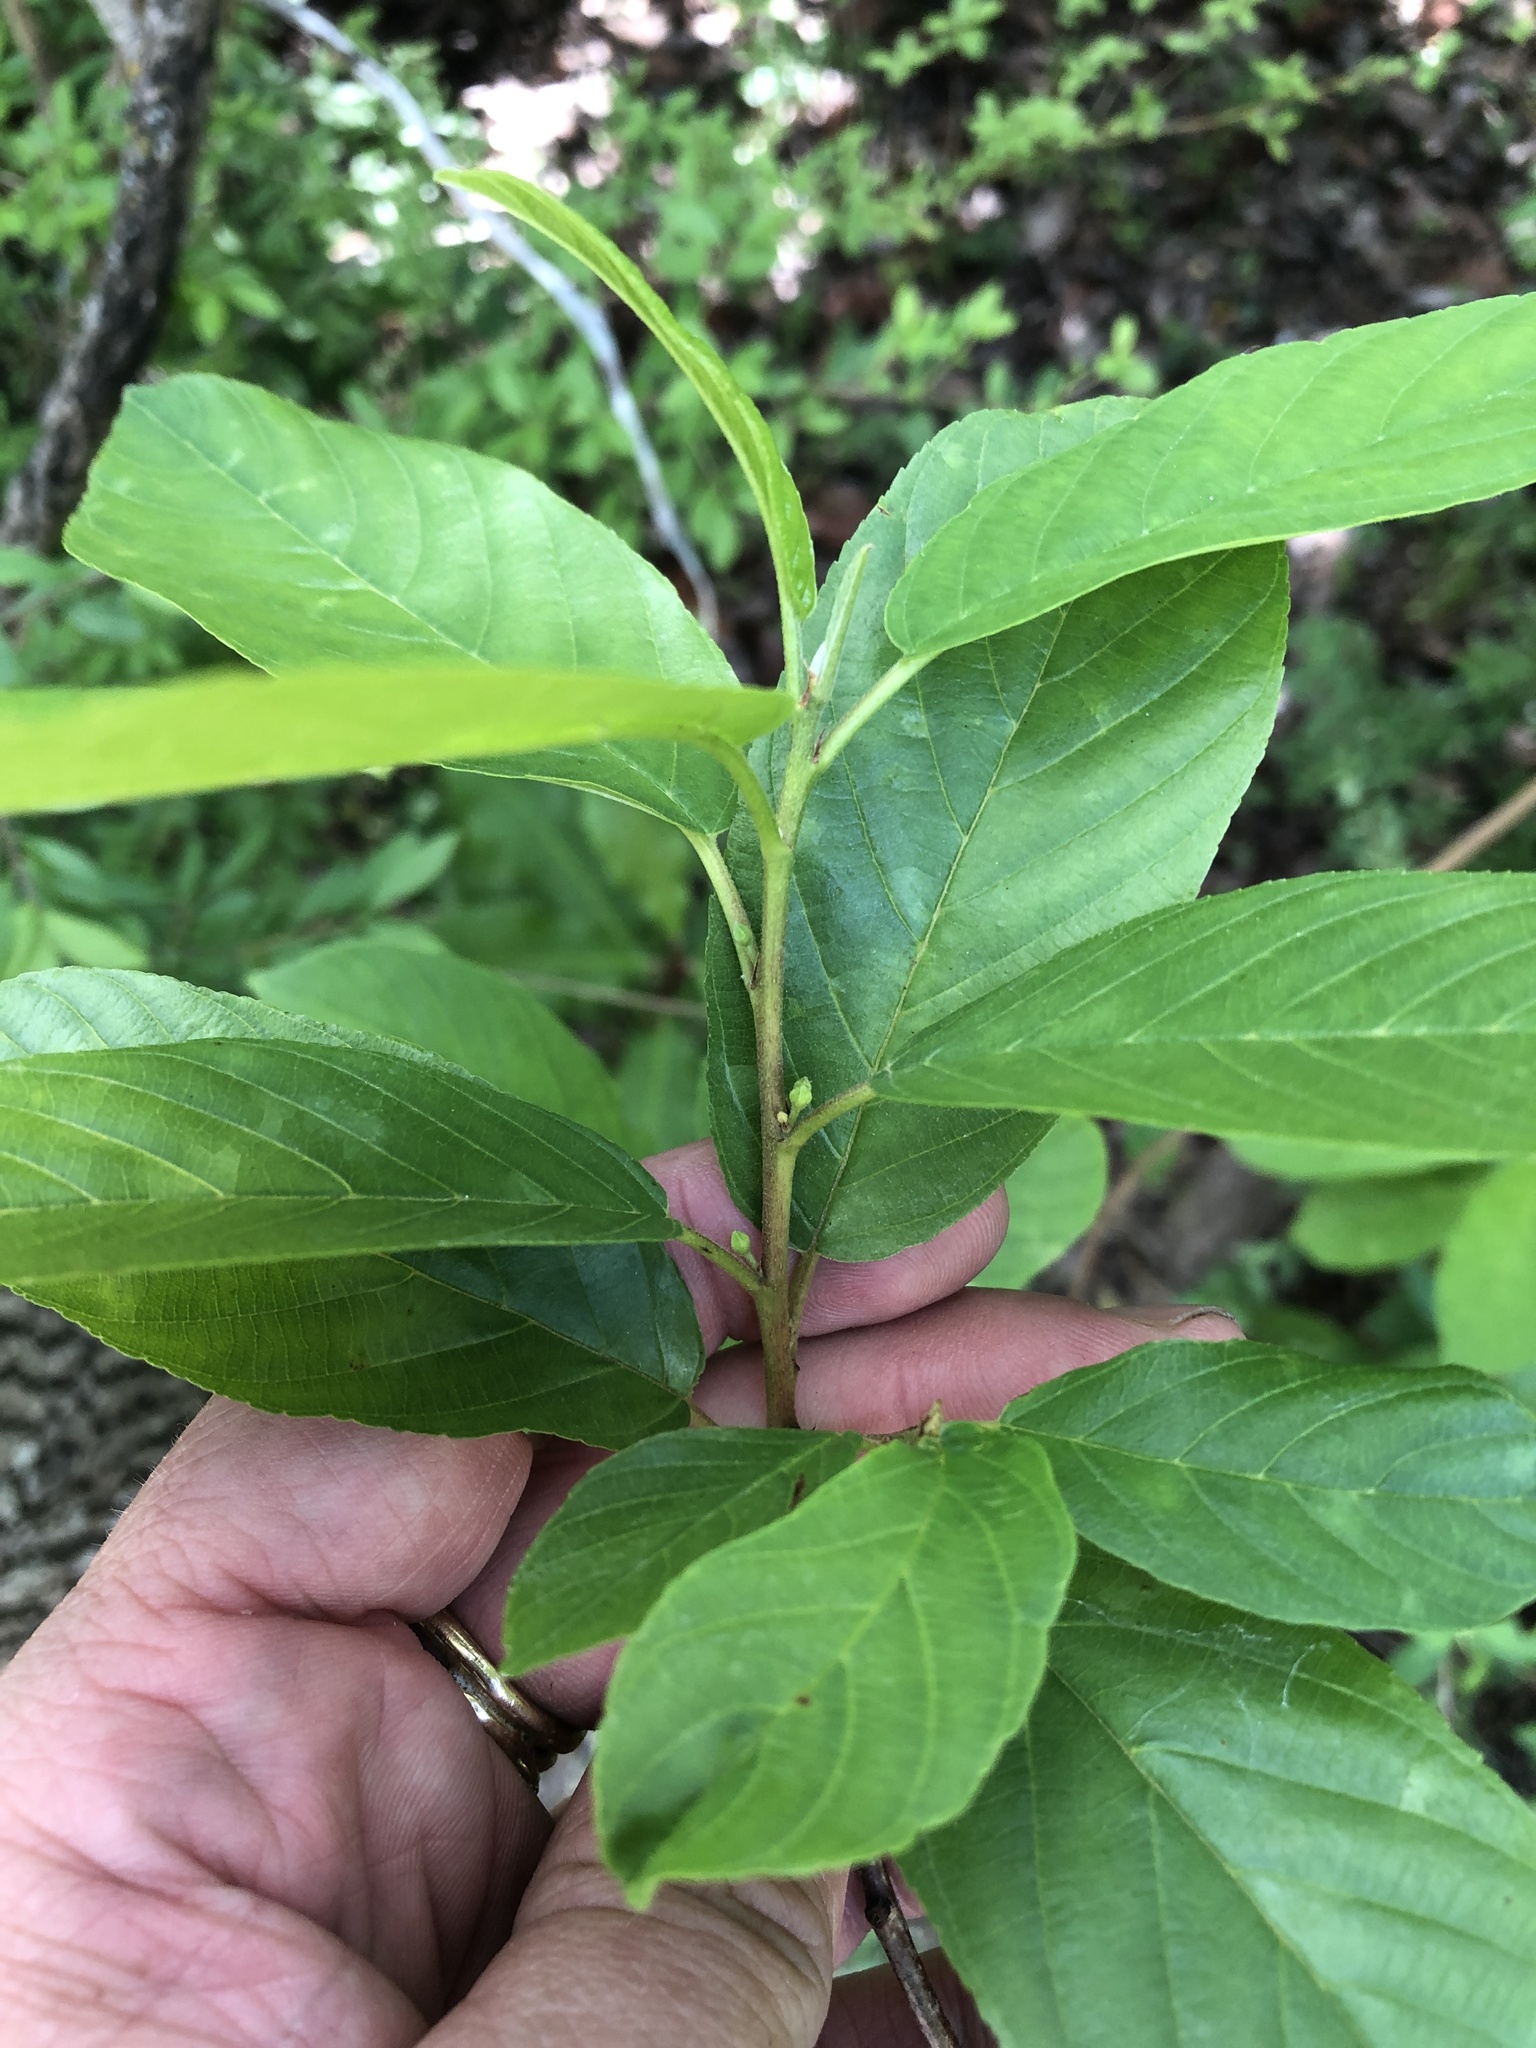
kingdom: Plantae
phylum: Tracheophyta
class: Magnoliopsida
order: Rosales
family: Rhamnaceae
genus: Frangula
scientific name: Frangula caroliniana
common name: Carolina buckthorn
